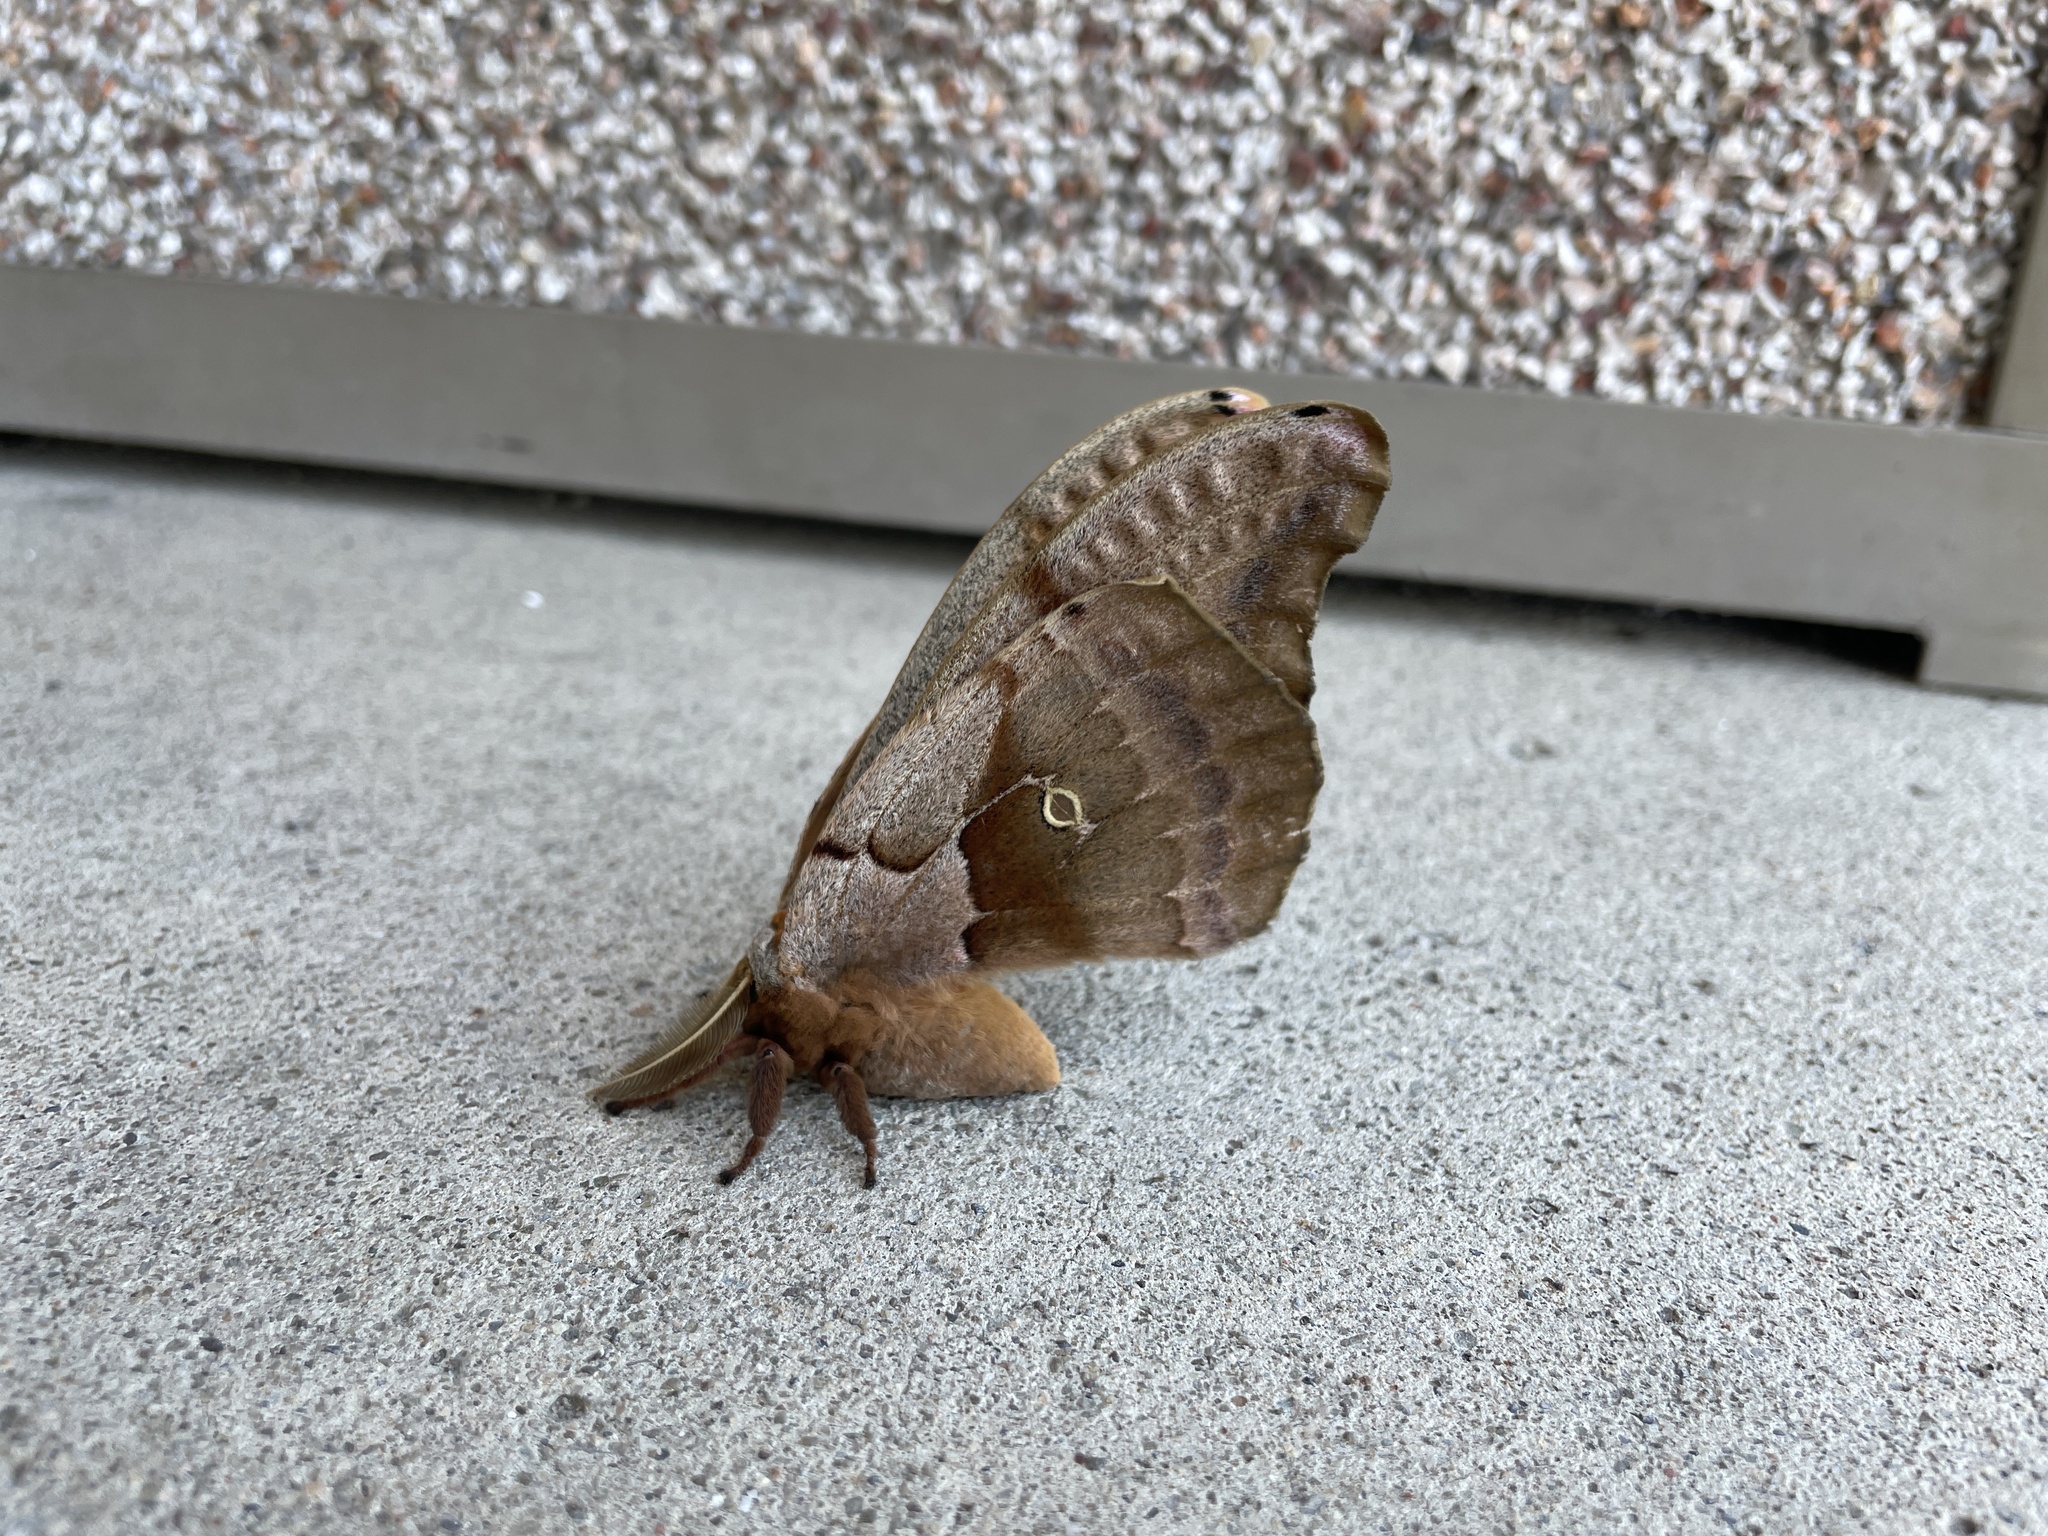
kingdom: Animalia
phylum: Arthropoda
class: Insecta
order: Lepidoptera
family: Saturniidae
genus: Antheraea
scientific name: Antheraea polyphemus
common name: Polyphemus moth
